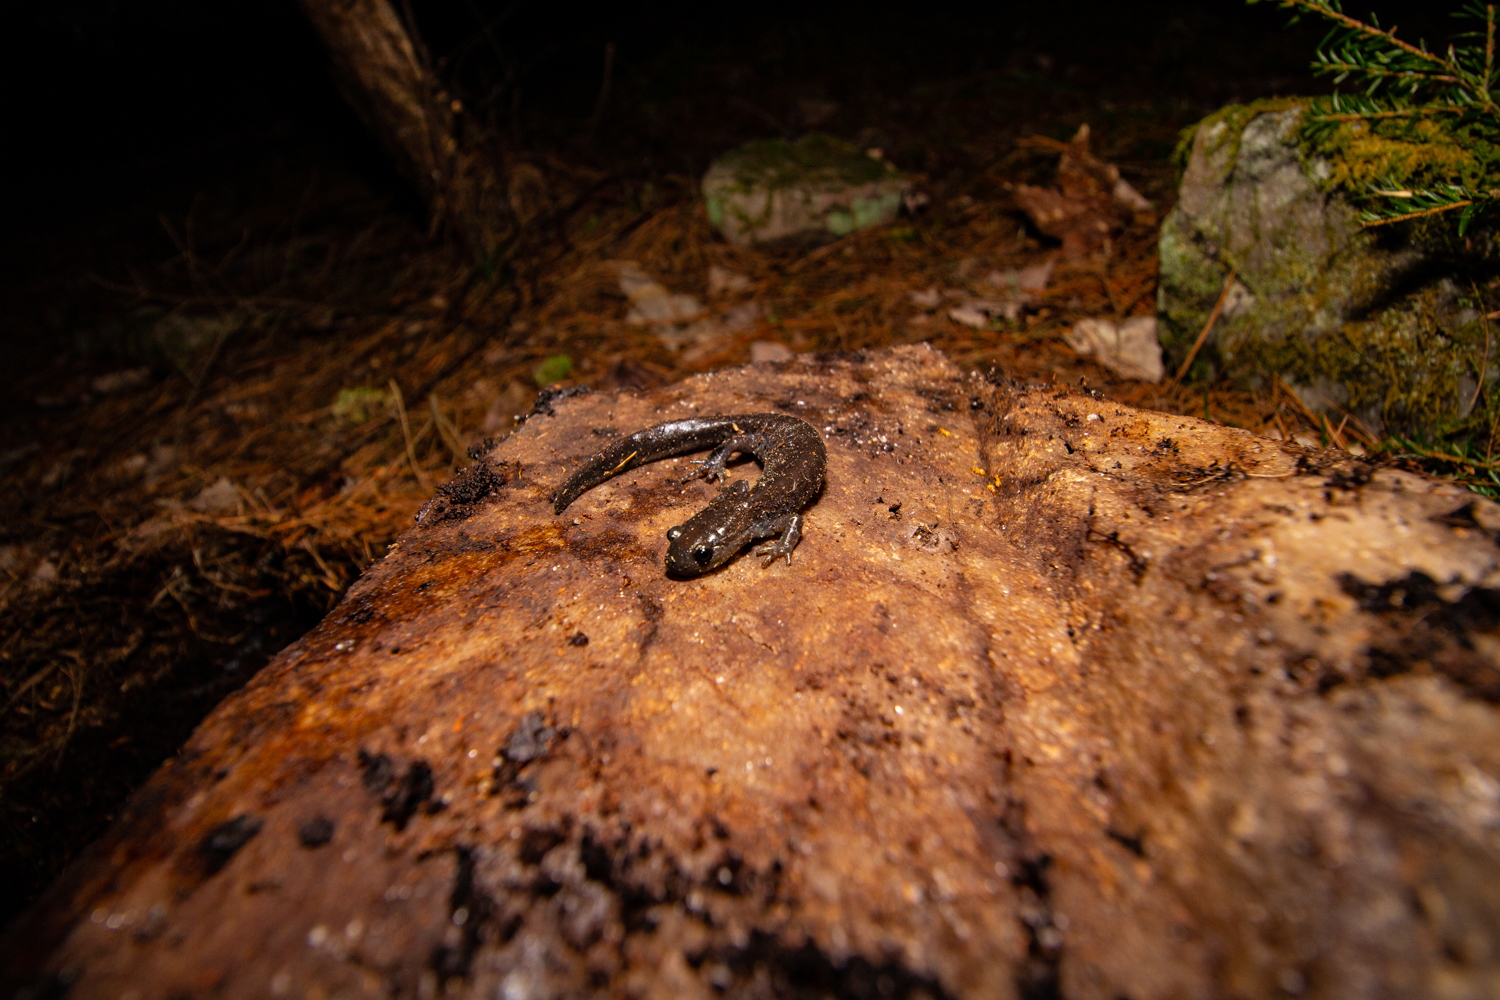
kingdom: Animalia
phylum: Chordata
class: Amphibia
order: Caudata
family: Ambystomatidae
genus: Ambystoma
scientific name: Ambystoma laterale
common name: Blue-spotted salamander
